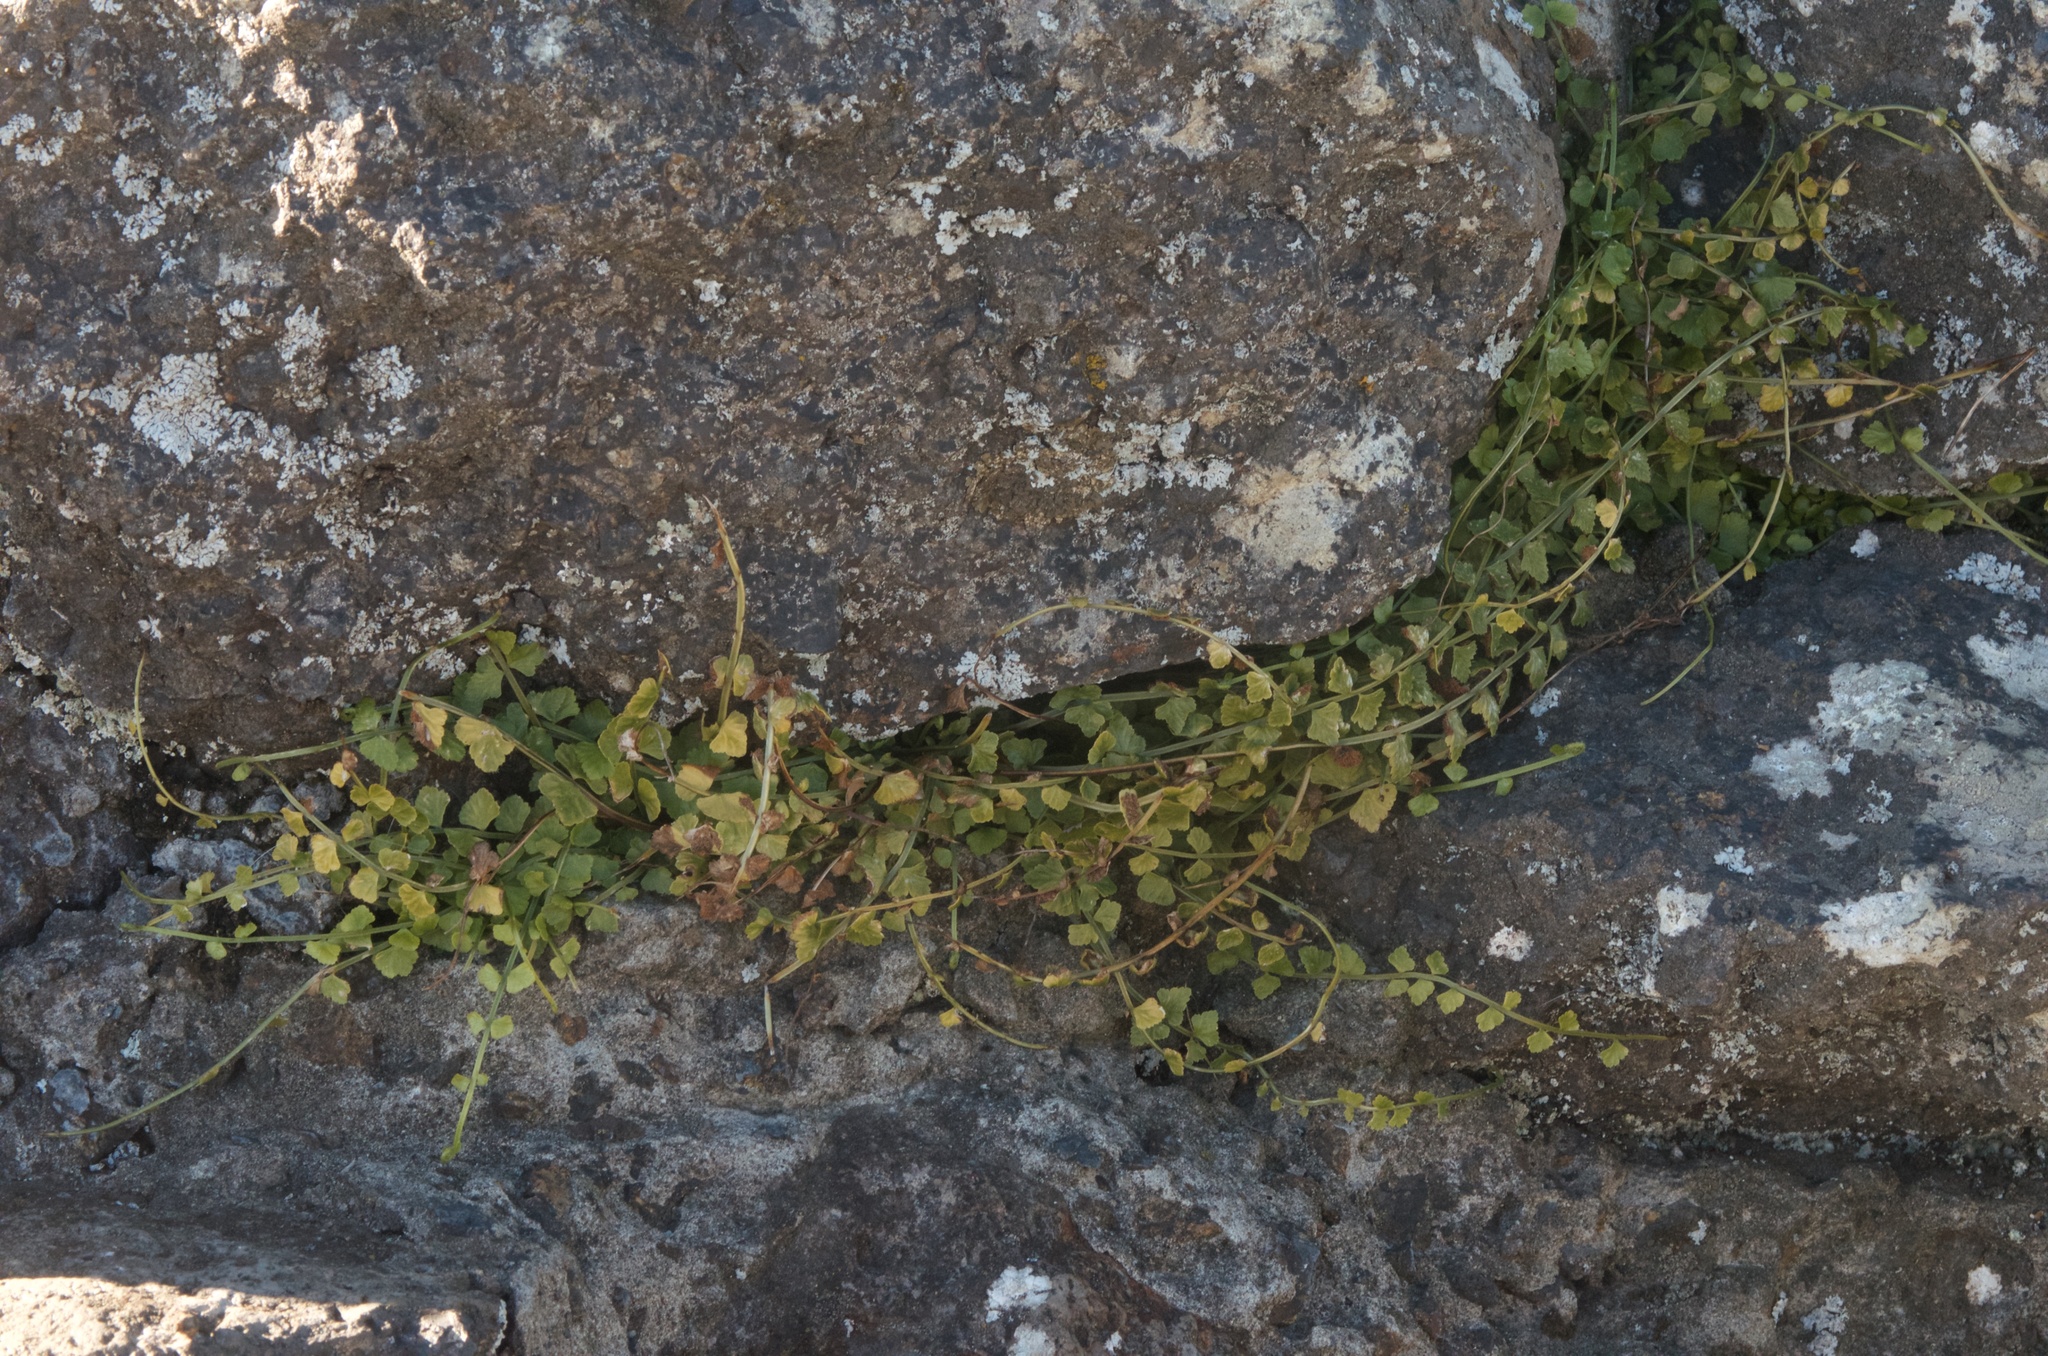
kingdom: Plantae
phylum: Tracheophyta
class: Polypodiopsida
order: Polypodiales
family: Aspleniaceae
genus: Asplenium
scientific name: Asplenium flabellifolium
